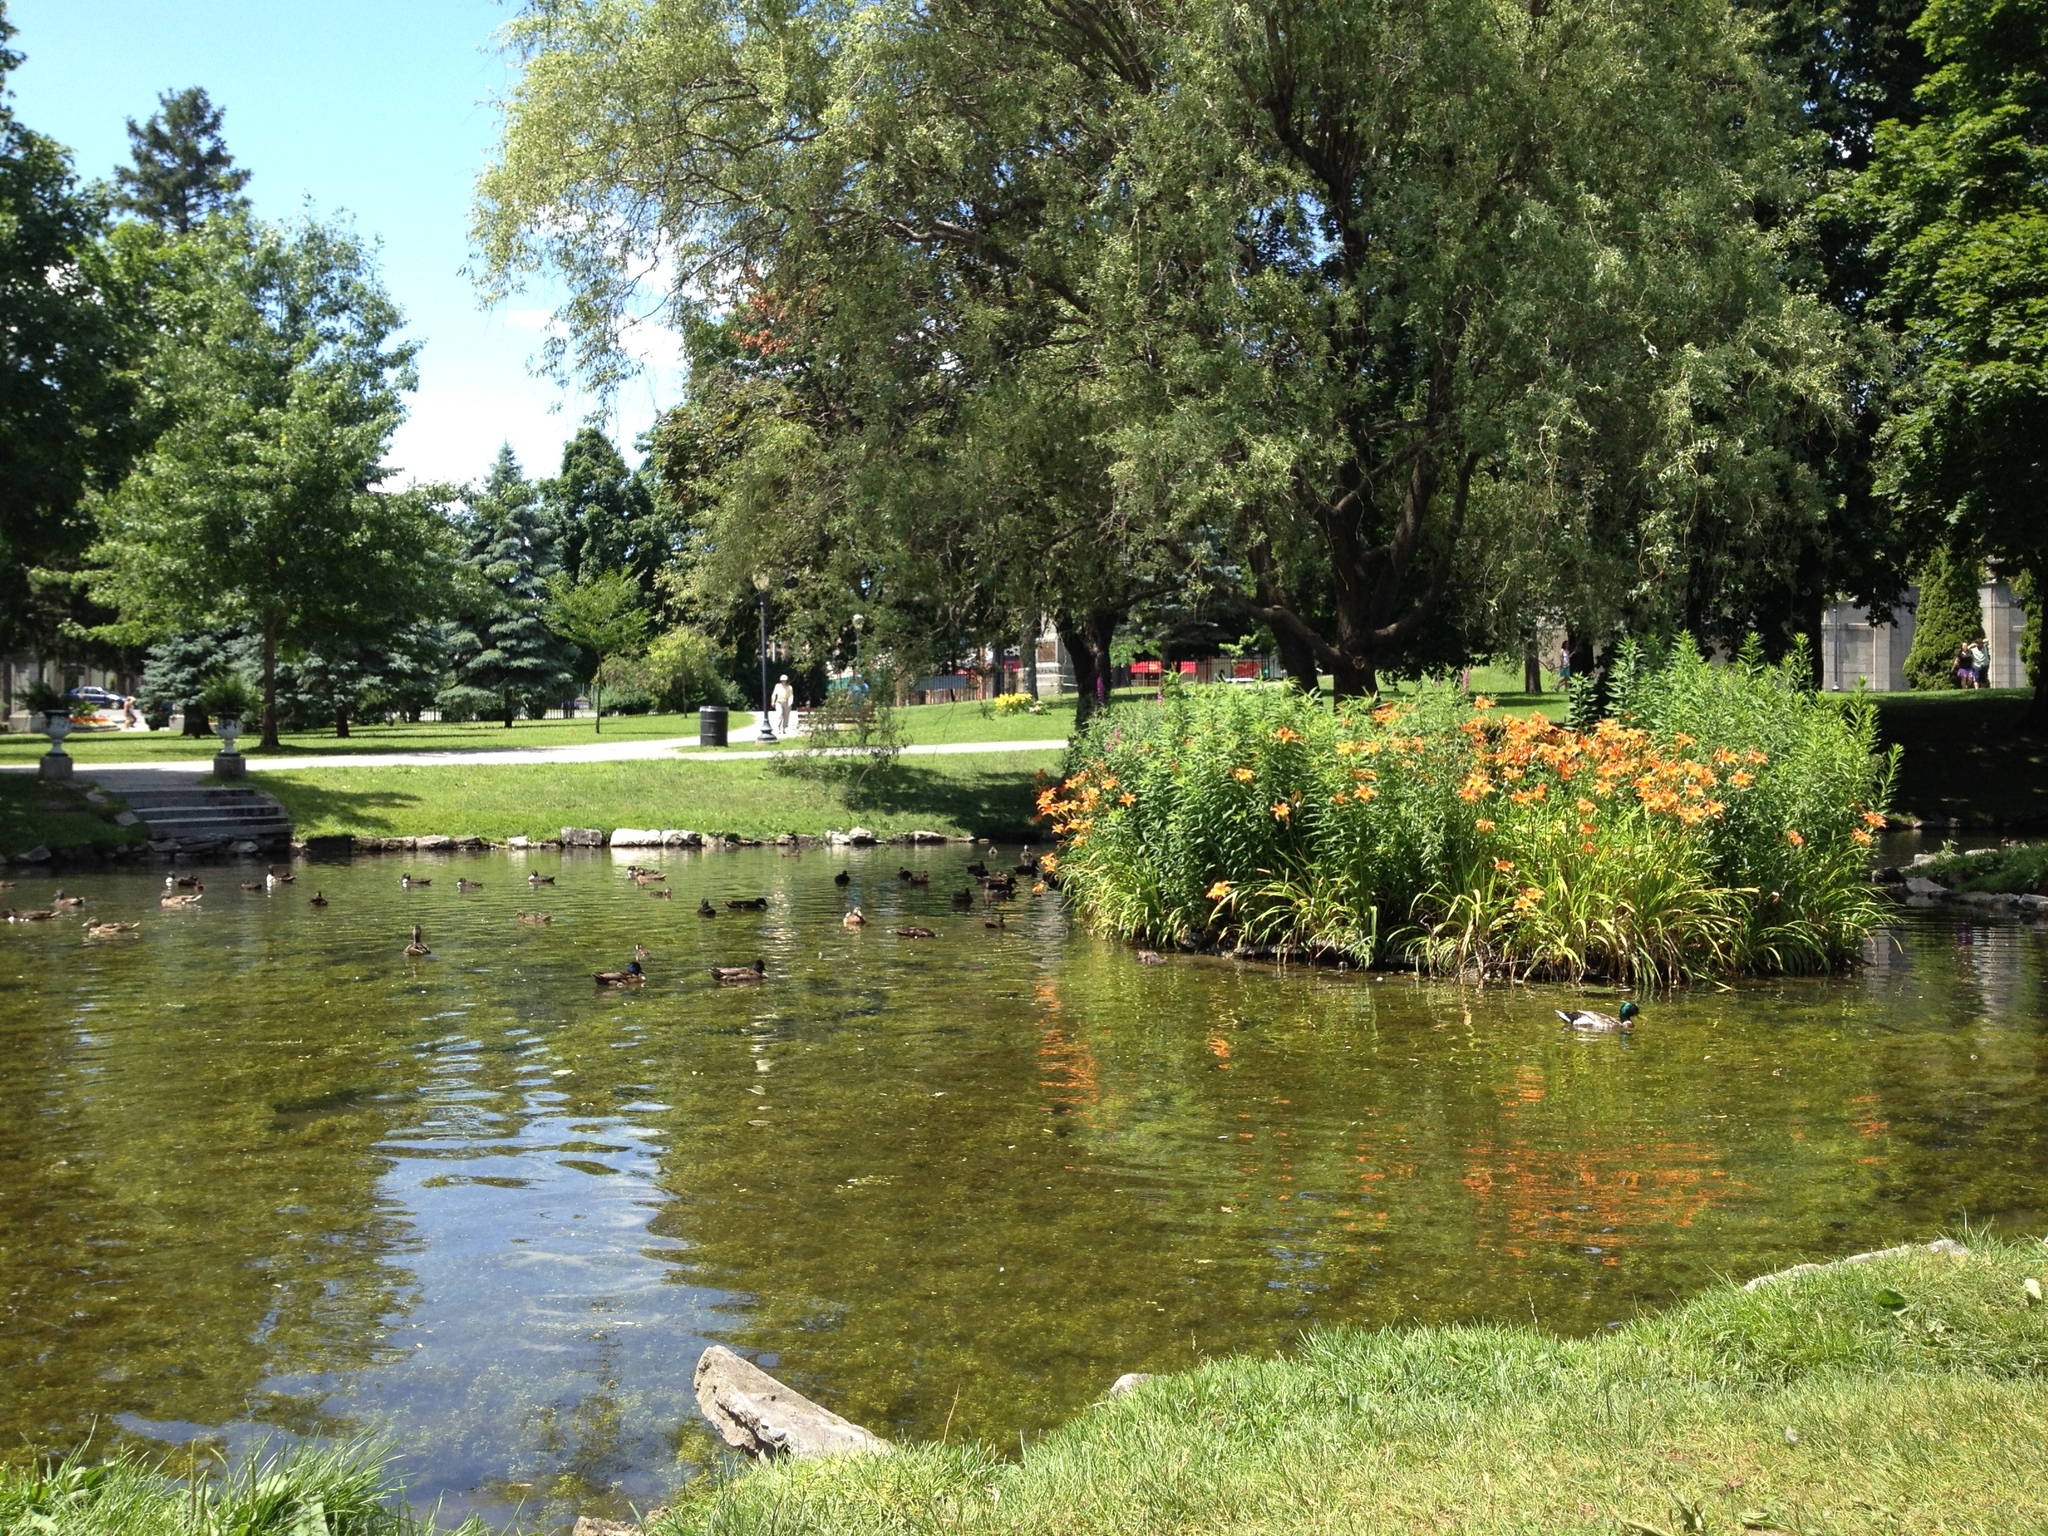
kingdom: Animalia
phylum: Chordata
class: Aves
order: Anseriformes
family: Anatidae
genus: Anas
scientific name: Anas platyrhynchos
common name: Mallard
